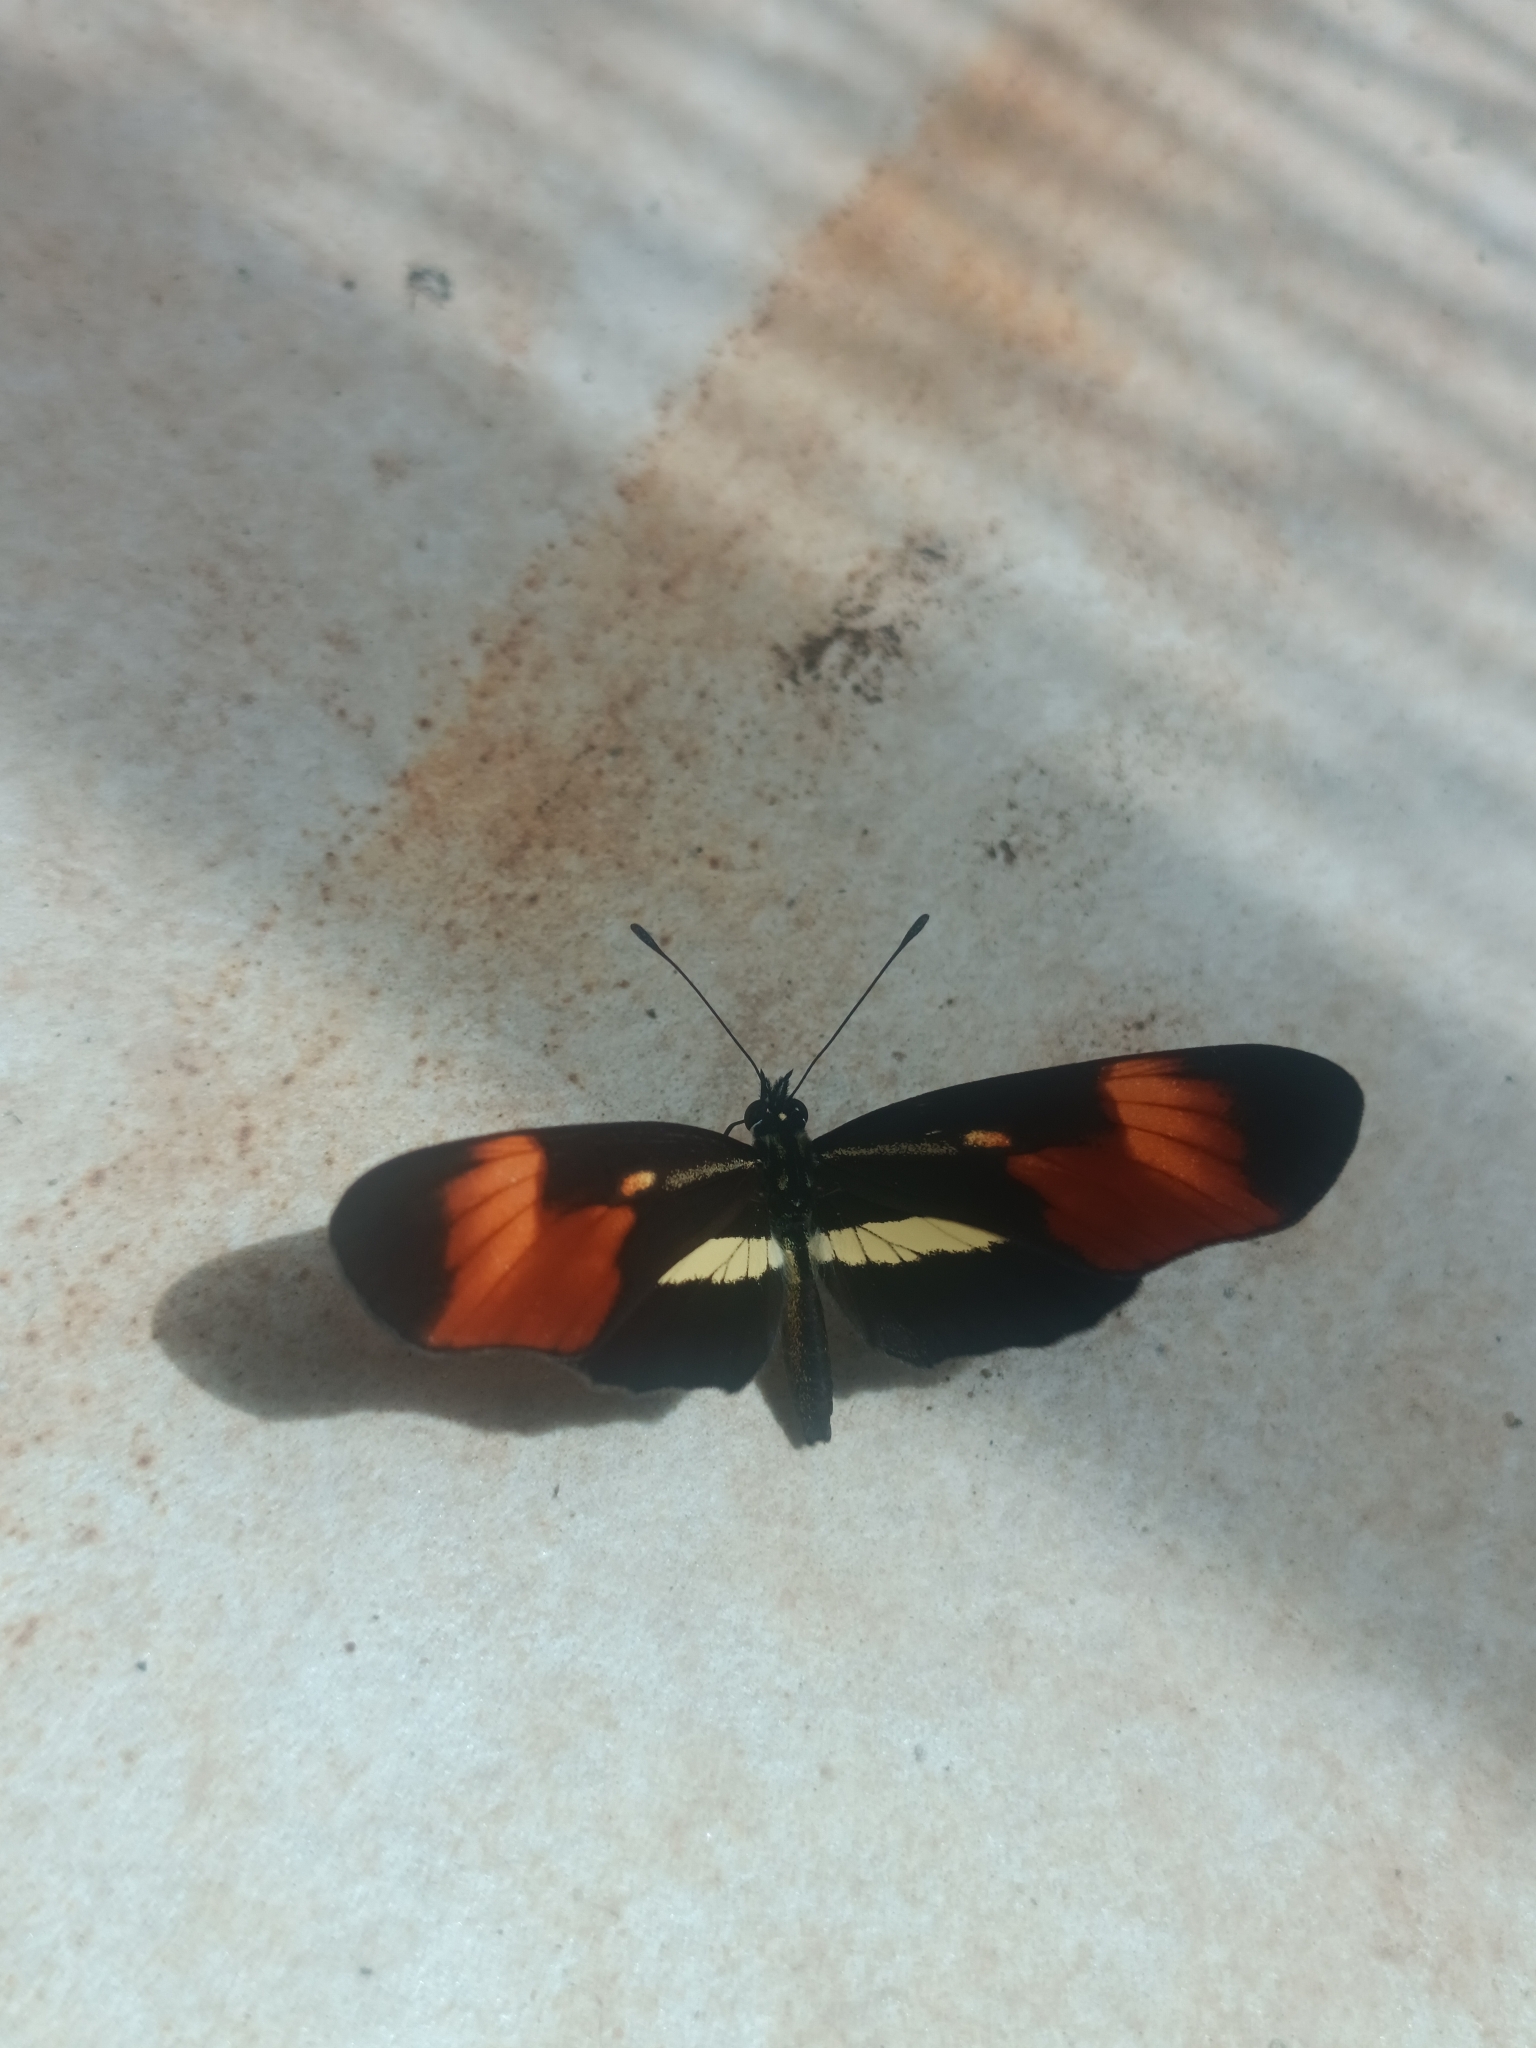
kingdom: Animalia
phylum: Arthropoda
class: Insecta
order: Lepidoptera
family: Nymphalidae
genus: Eresia
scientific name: Eresia lansdorfi
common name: Lansdorf's crescent
